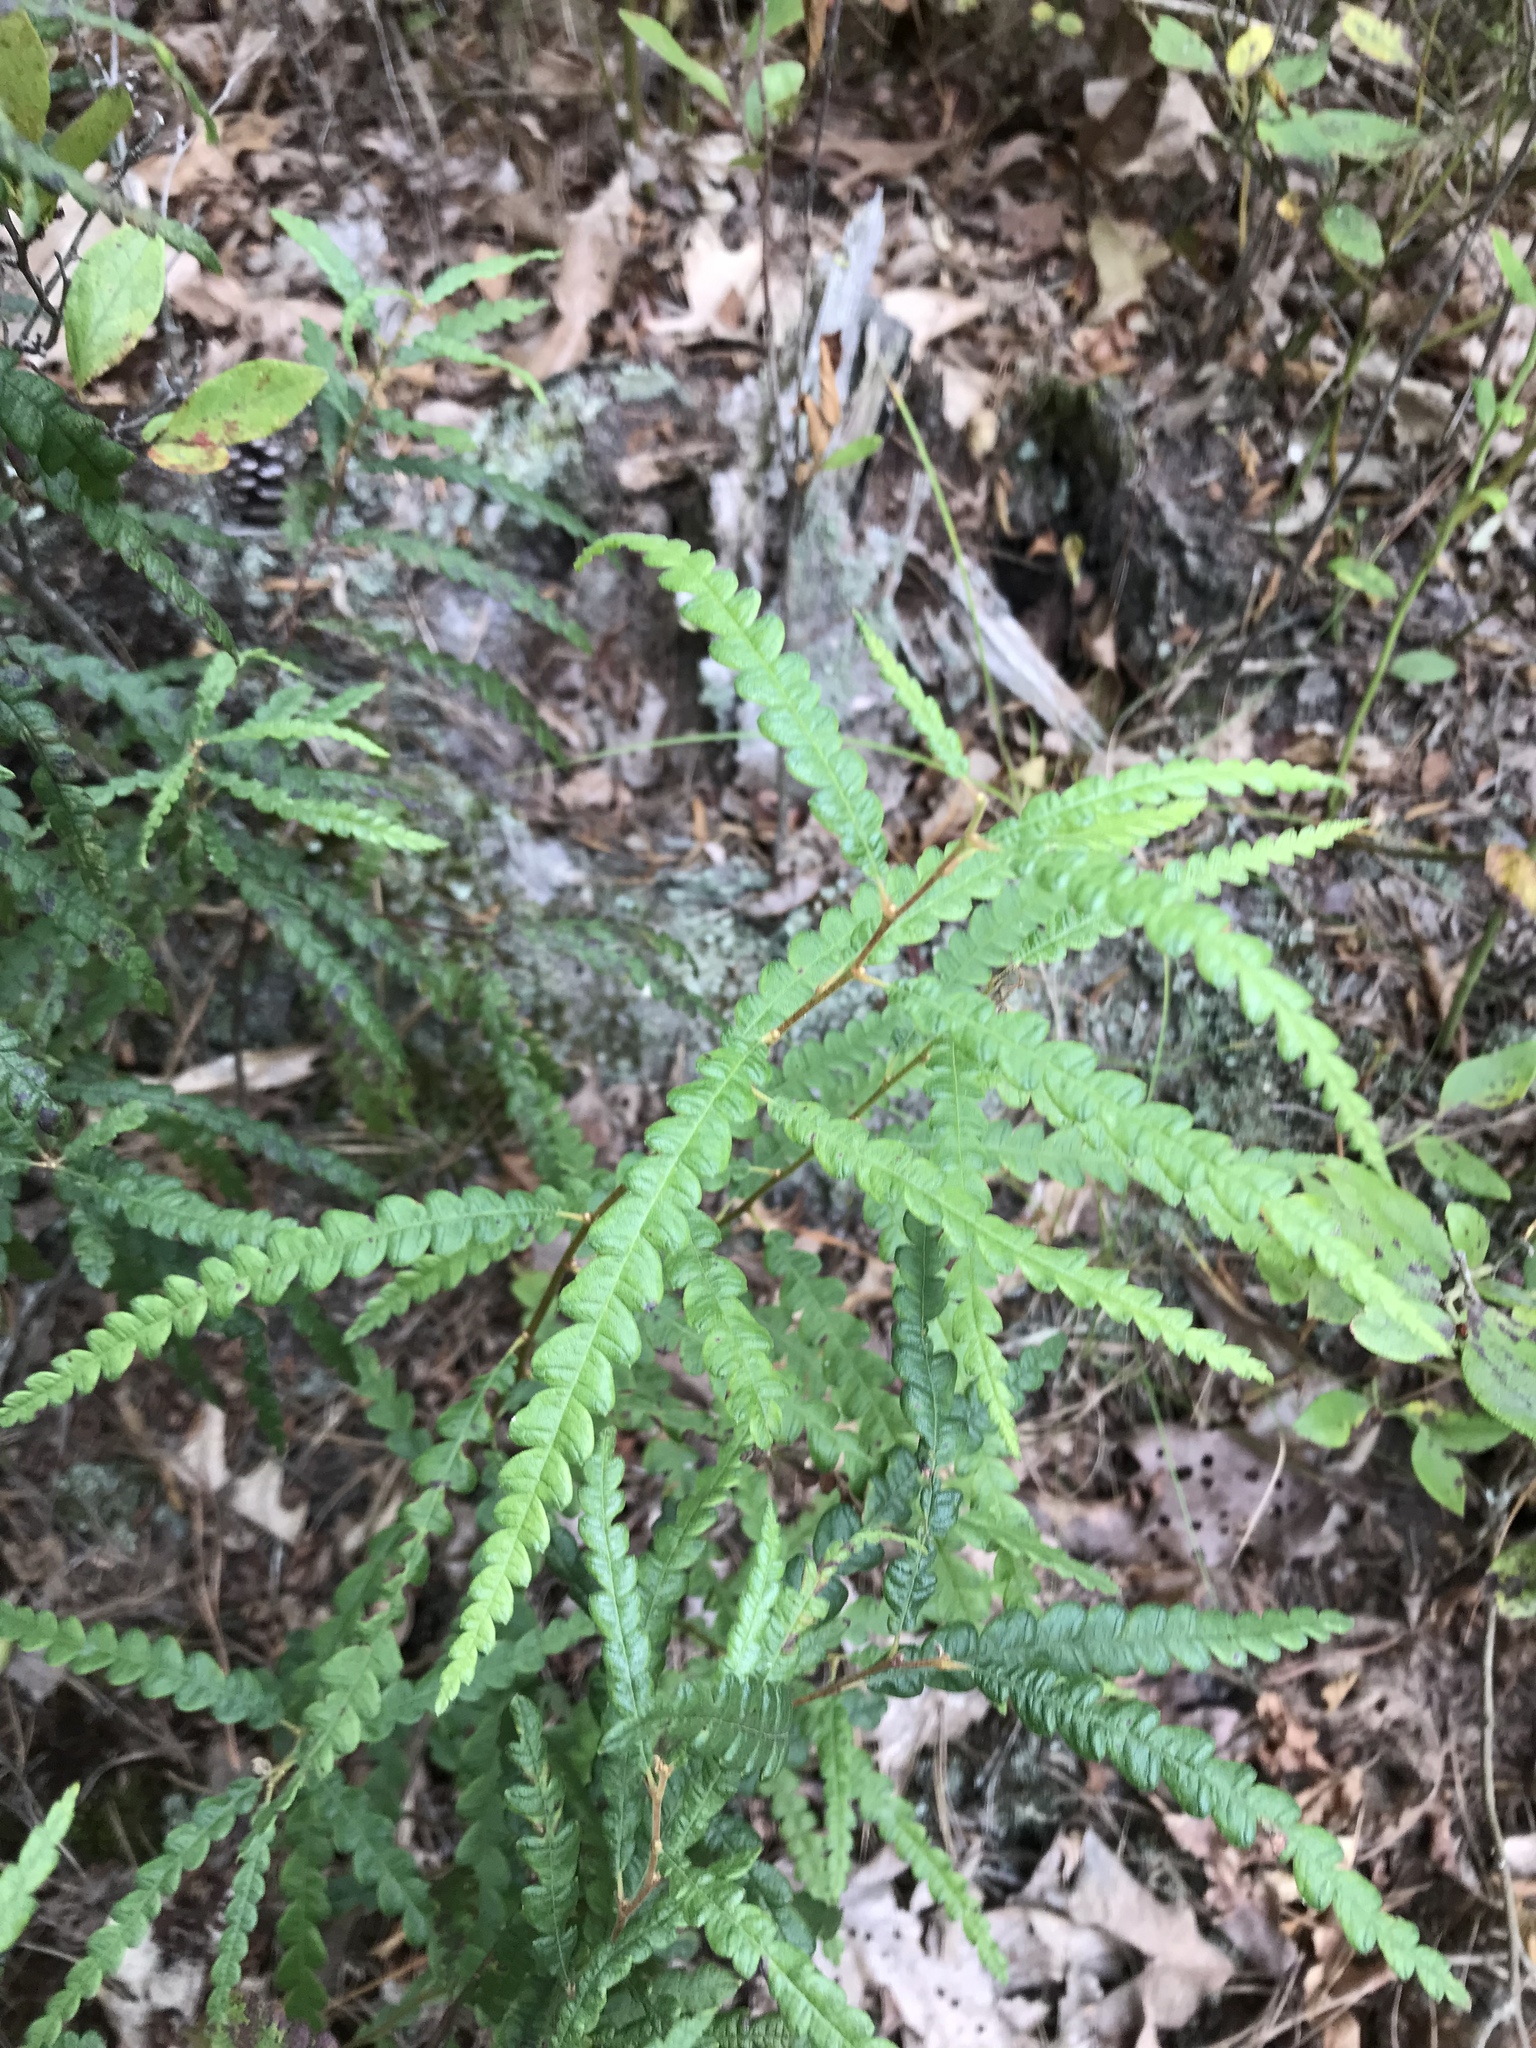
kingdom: Plantae
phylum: Tracheophyta
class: Magnoliopsida
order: Fagales
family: Myricaceae
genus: Comptonia
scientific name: Comptonia peregrina
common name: Sweet-fern
